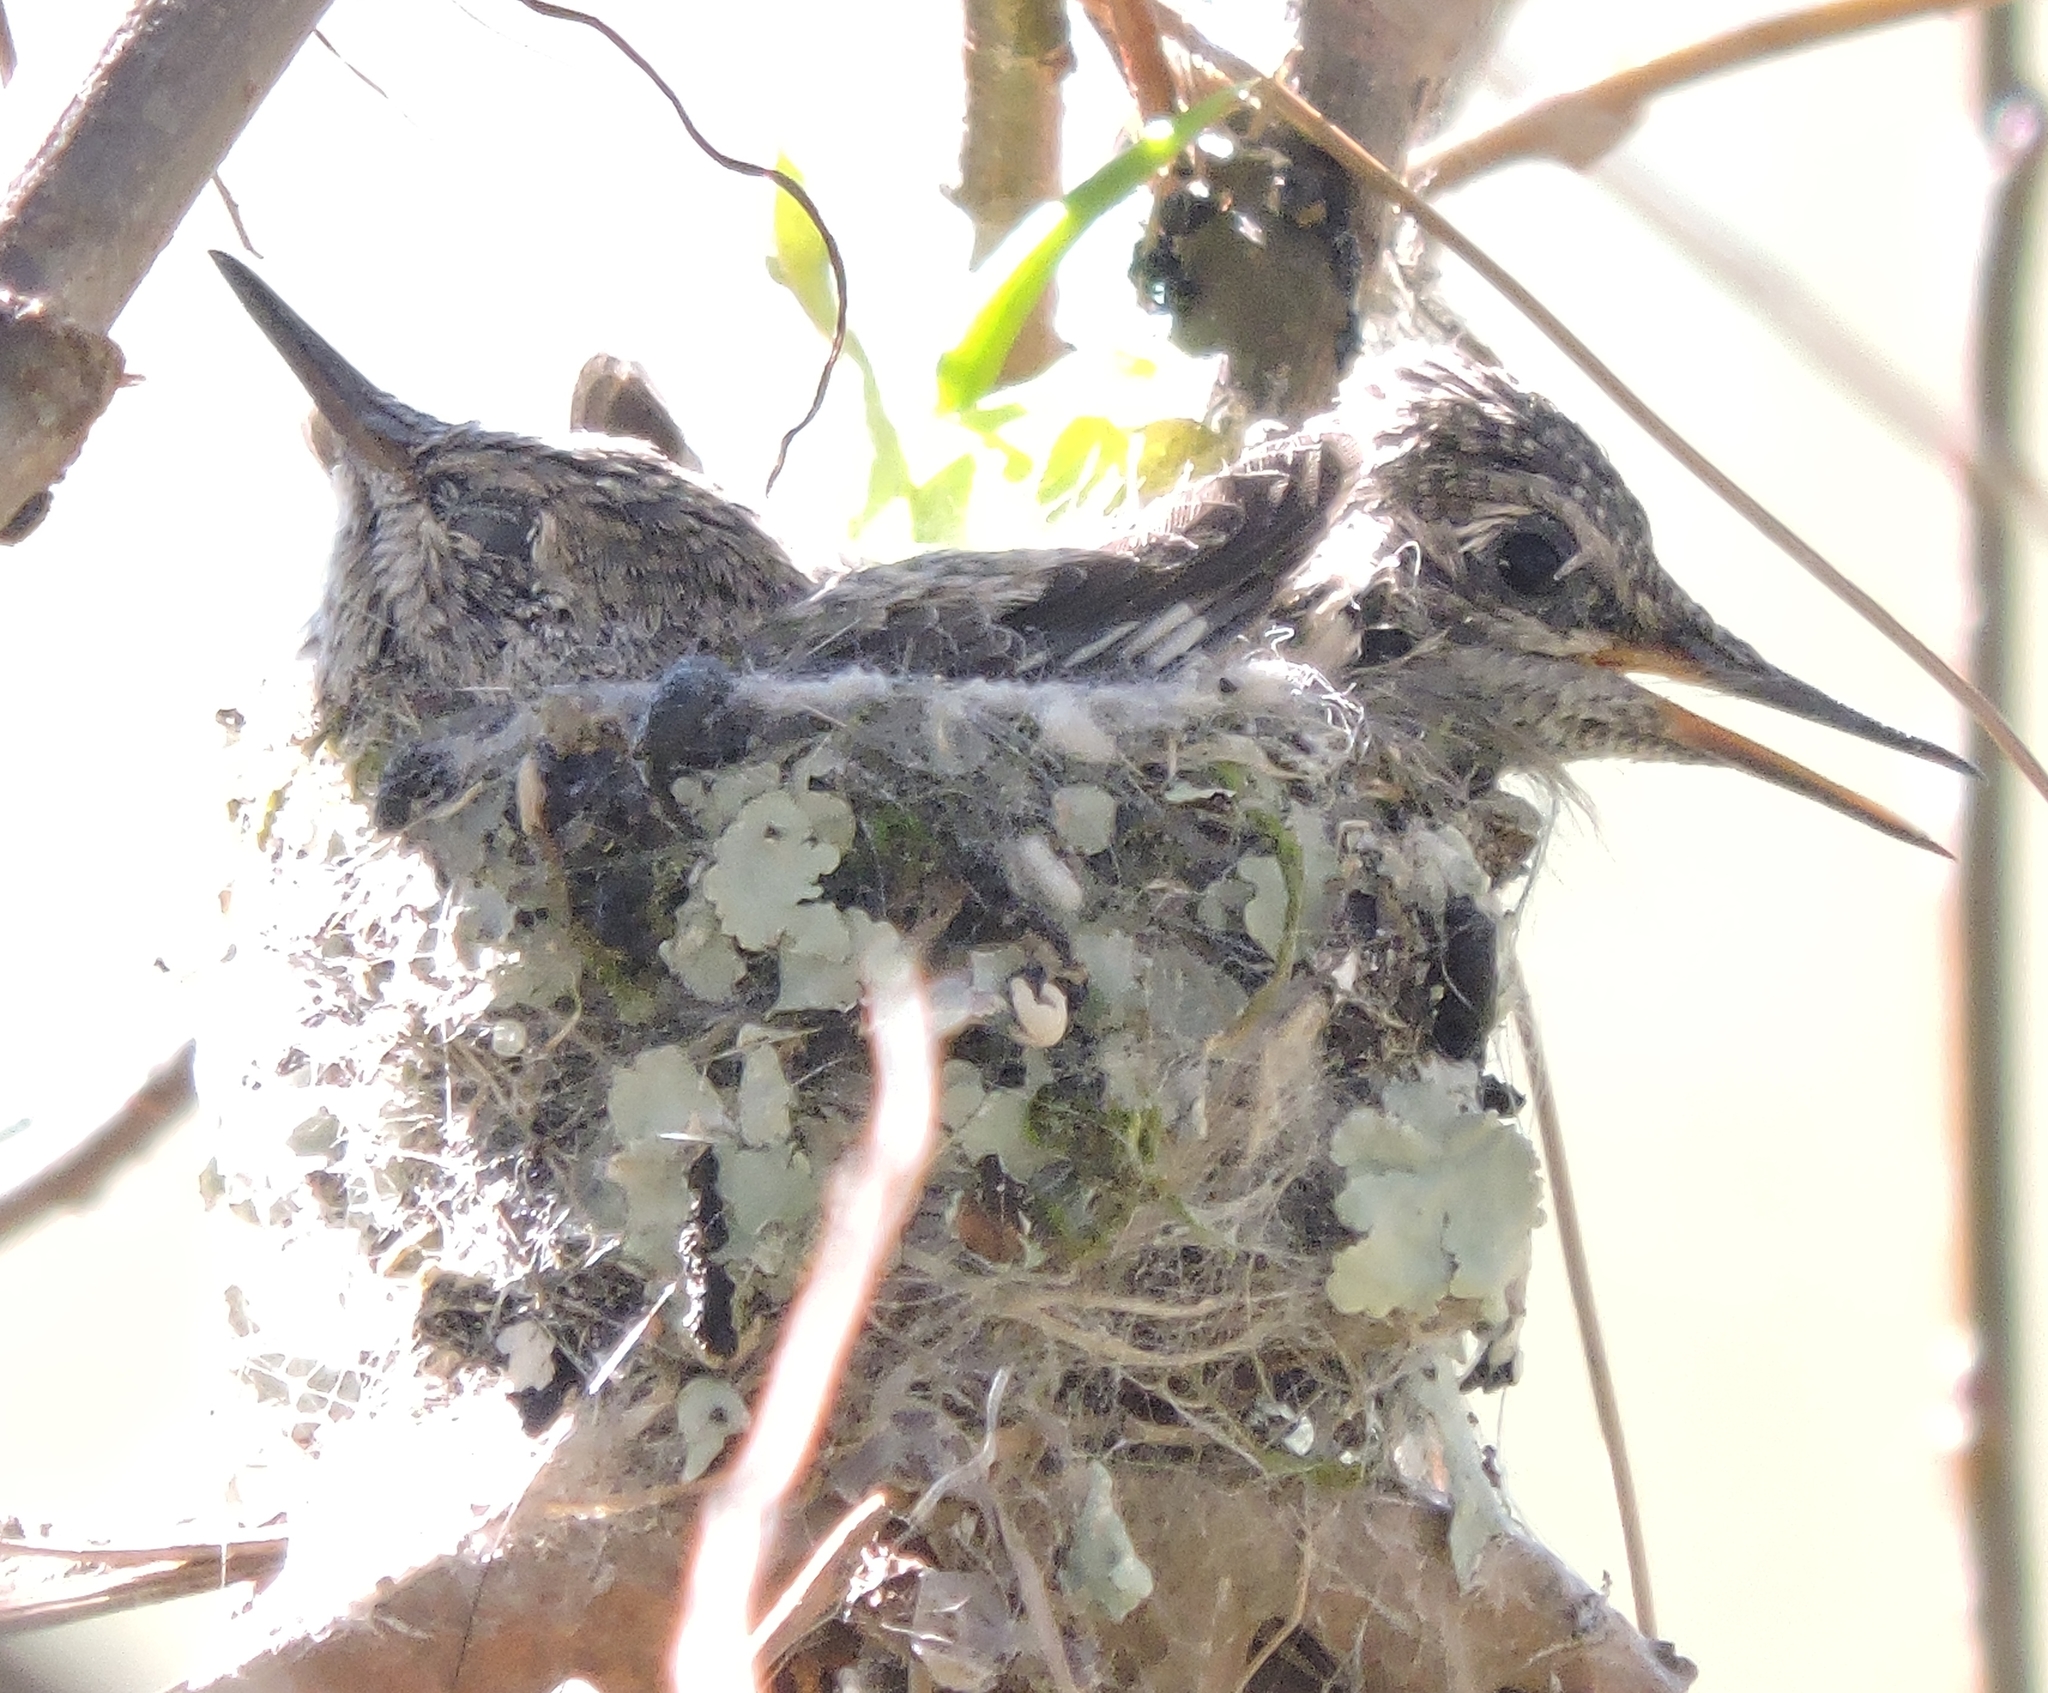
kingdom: Animalia
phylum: Chordata
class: Aves
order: Apodiformes
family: Trochilidae
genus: Calypte
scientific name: Calypte anna
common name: Anna's hummingbird
